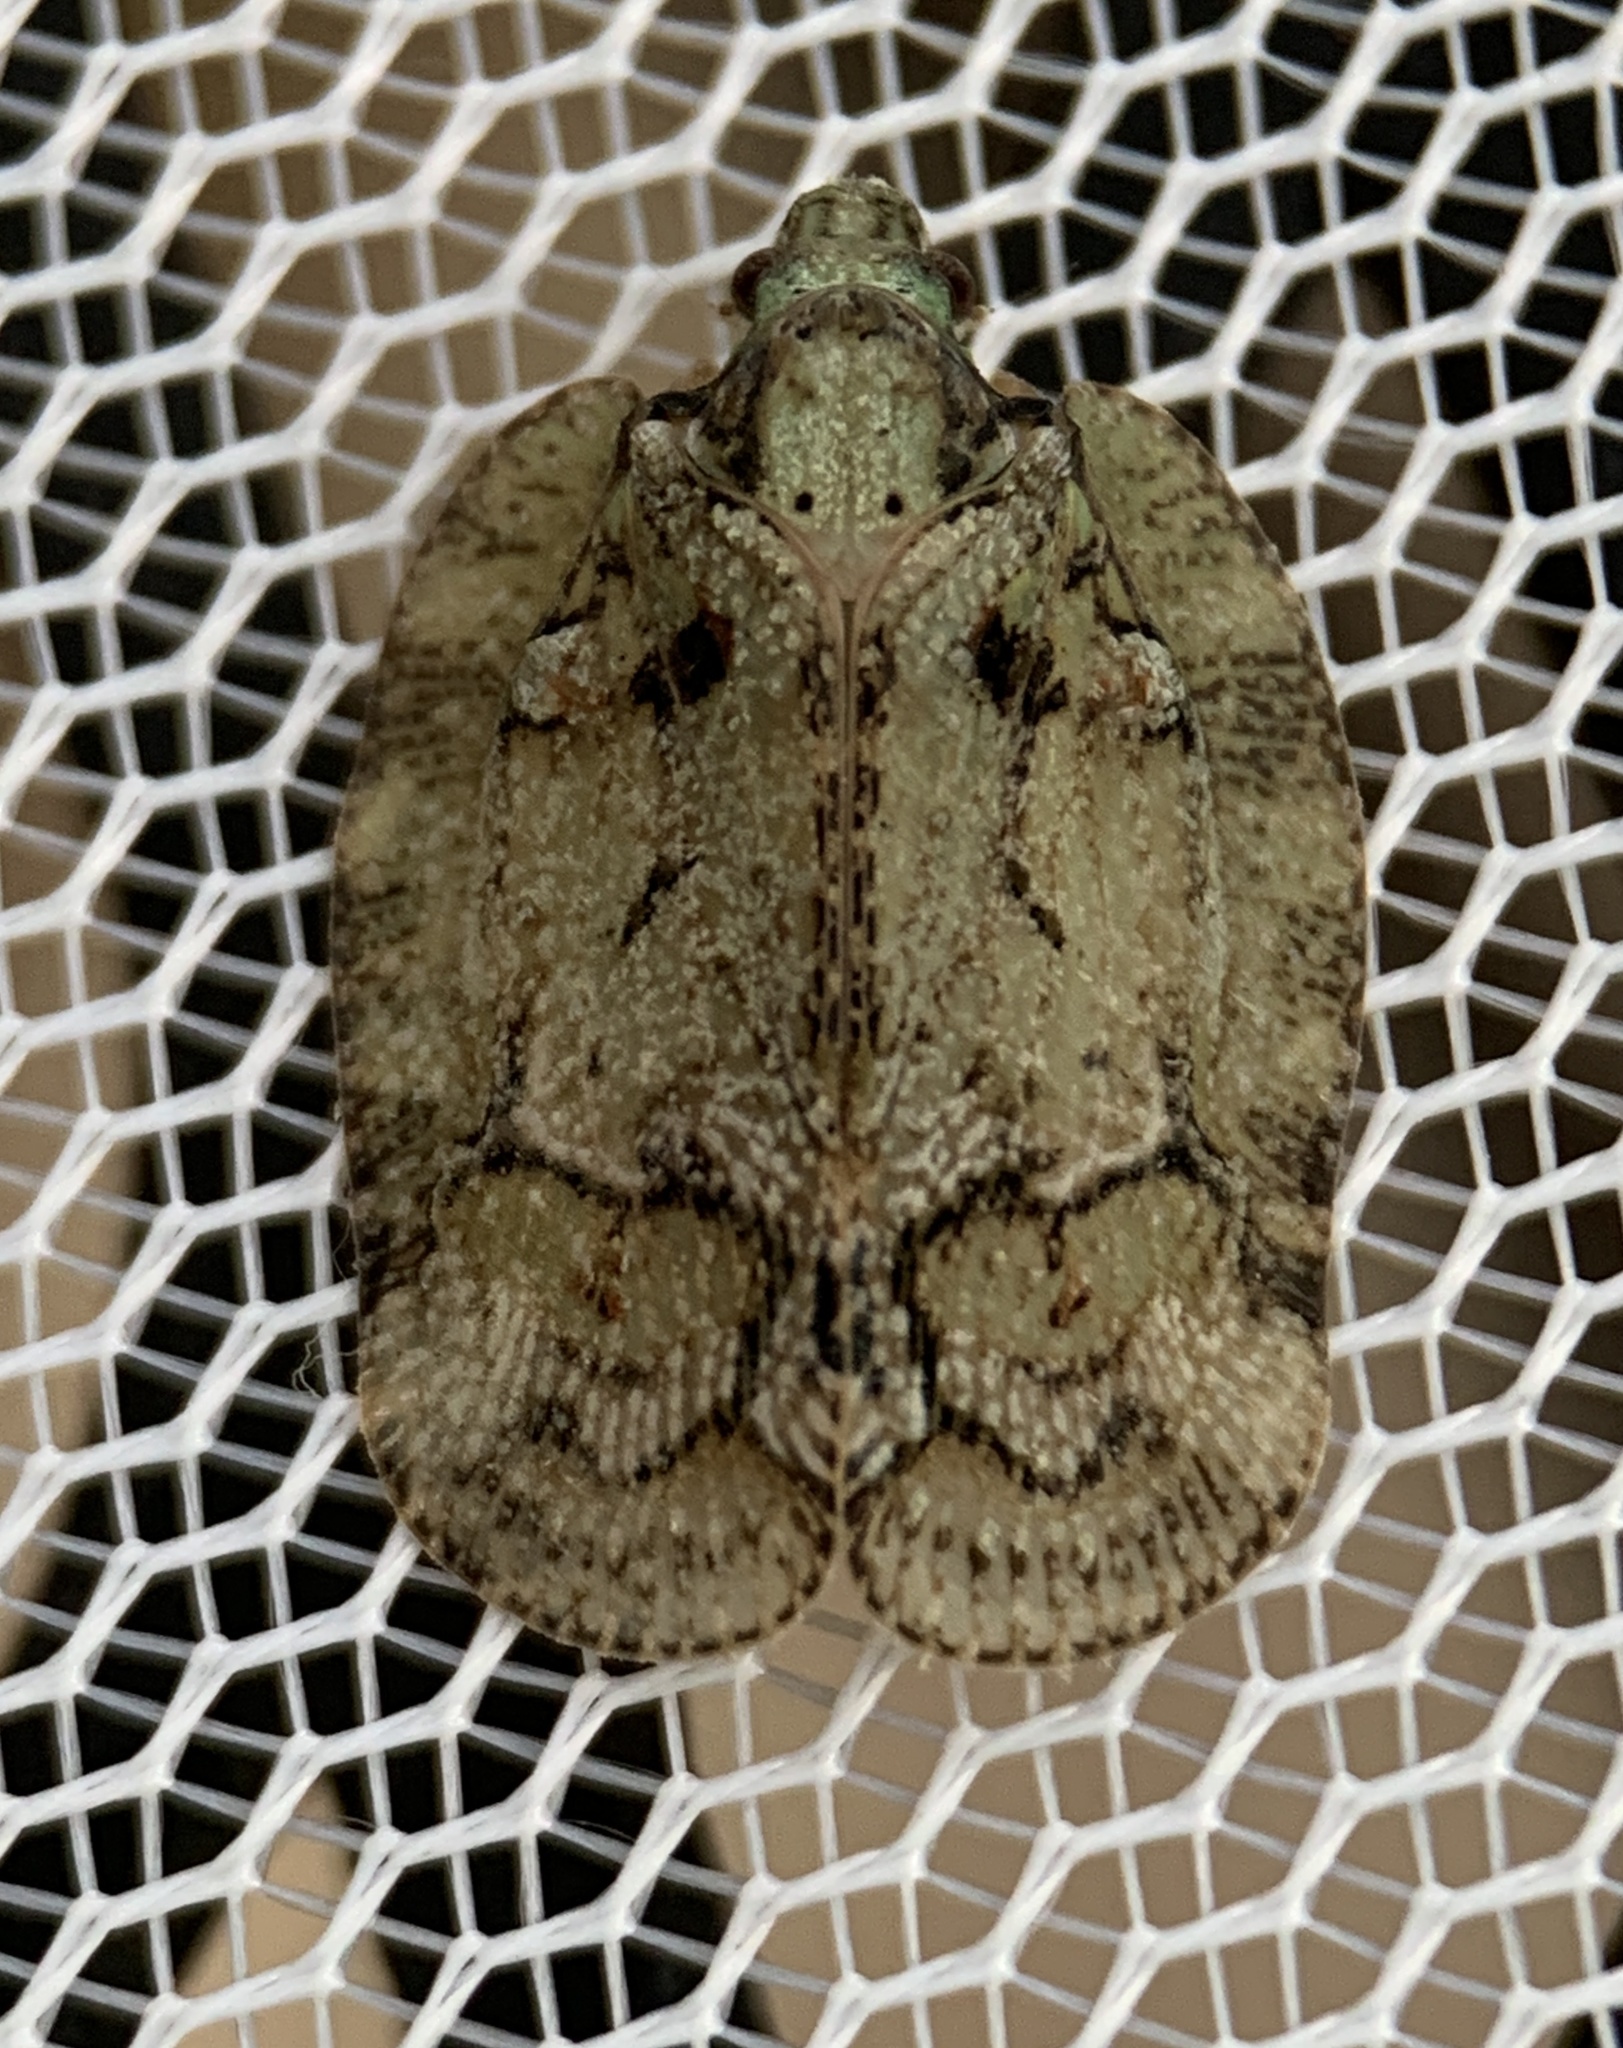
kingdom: Animalia
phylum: Arthropoda
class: Insecta
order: Hemiptera
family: Flatidae
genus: Flataloides
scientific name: Flataloides scabrosa
